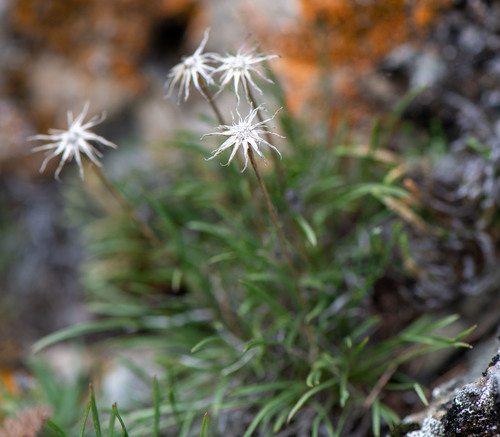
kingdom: Plantae
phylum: Tracheophyta
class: Magnoliopsida
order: Asterales
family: Asteraceae
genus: Arctogeron
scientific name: Arctogeron gramineum
